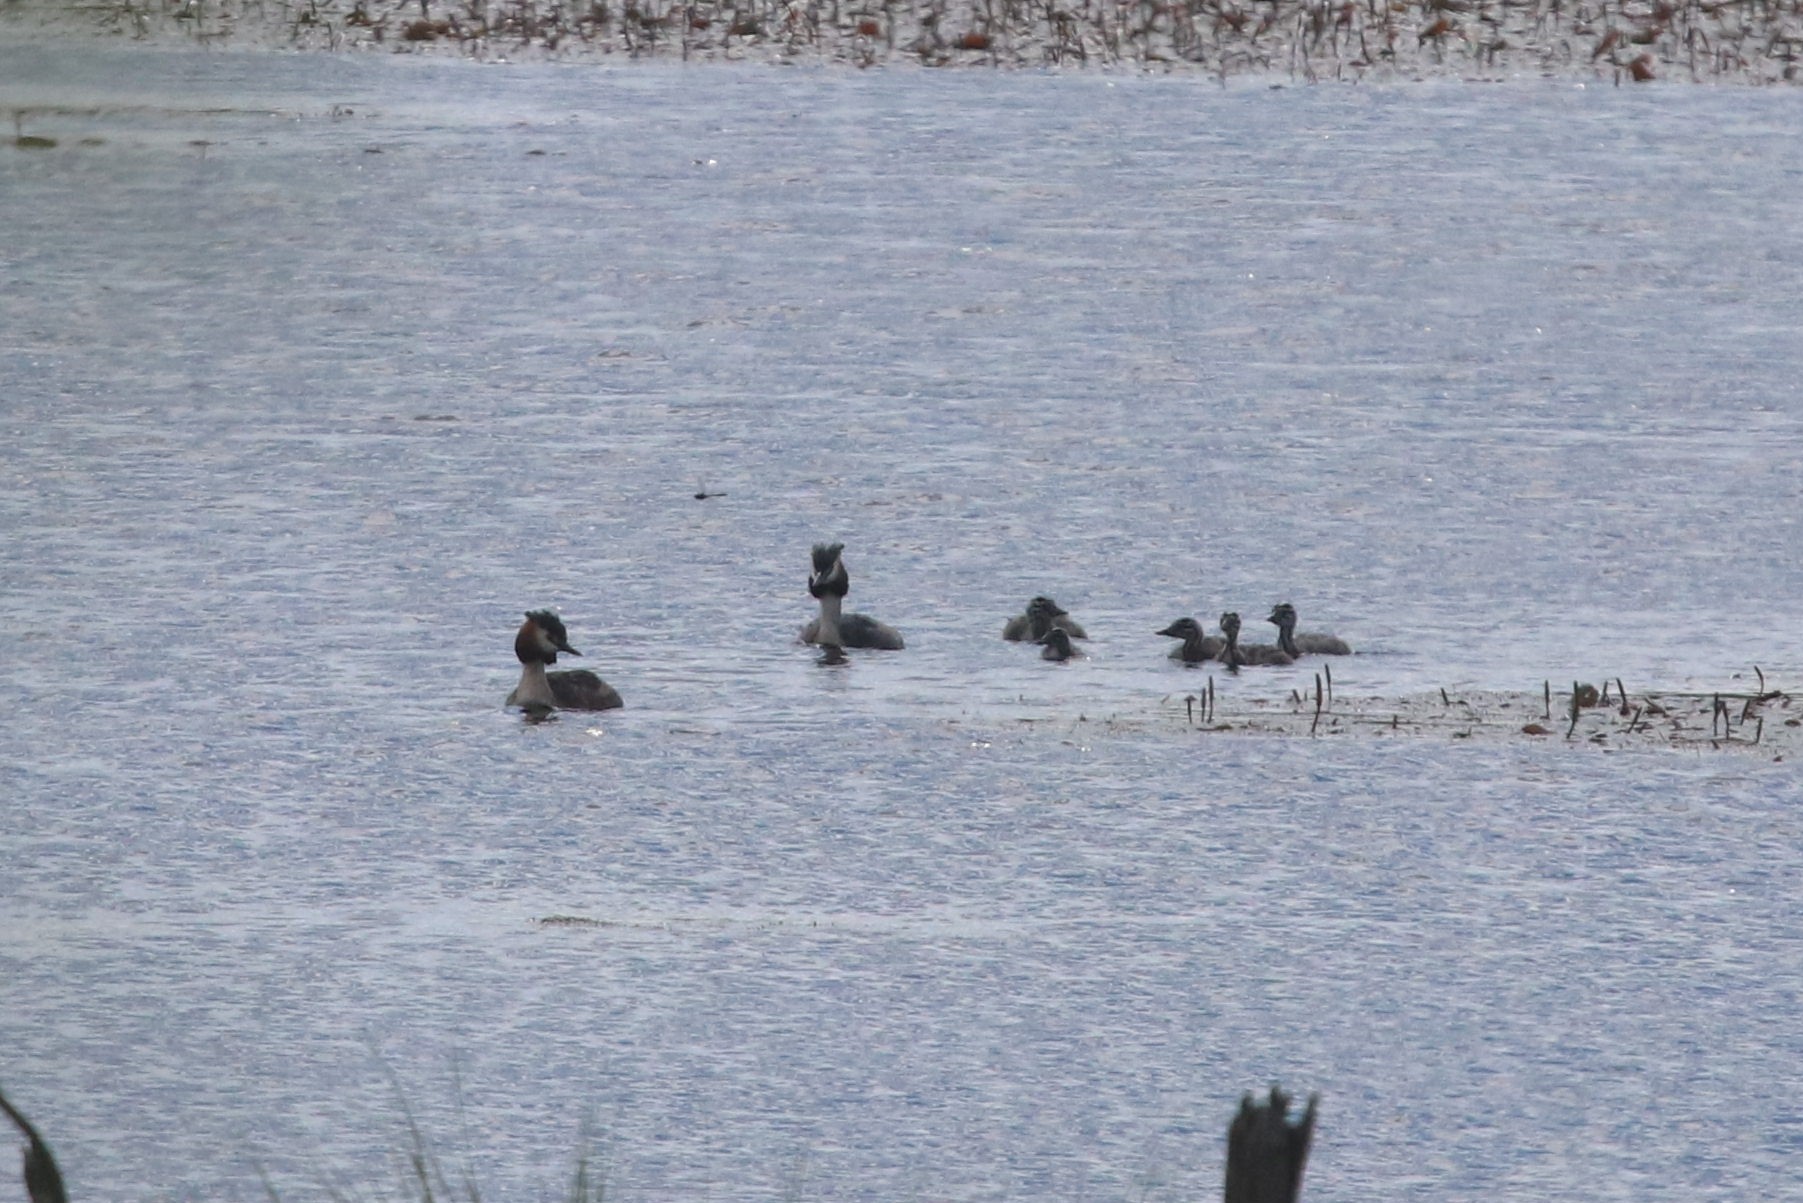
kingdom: Animalia
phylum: Chordata
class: Aves
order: Podicipediformes
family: Podicipedidae
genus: Podiceps
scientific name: Podiceps cristatus
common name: Great crested grebe
